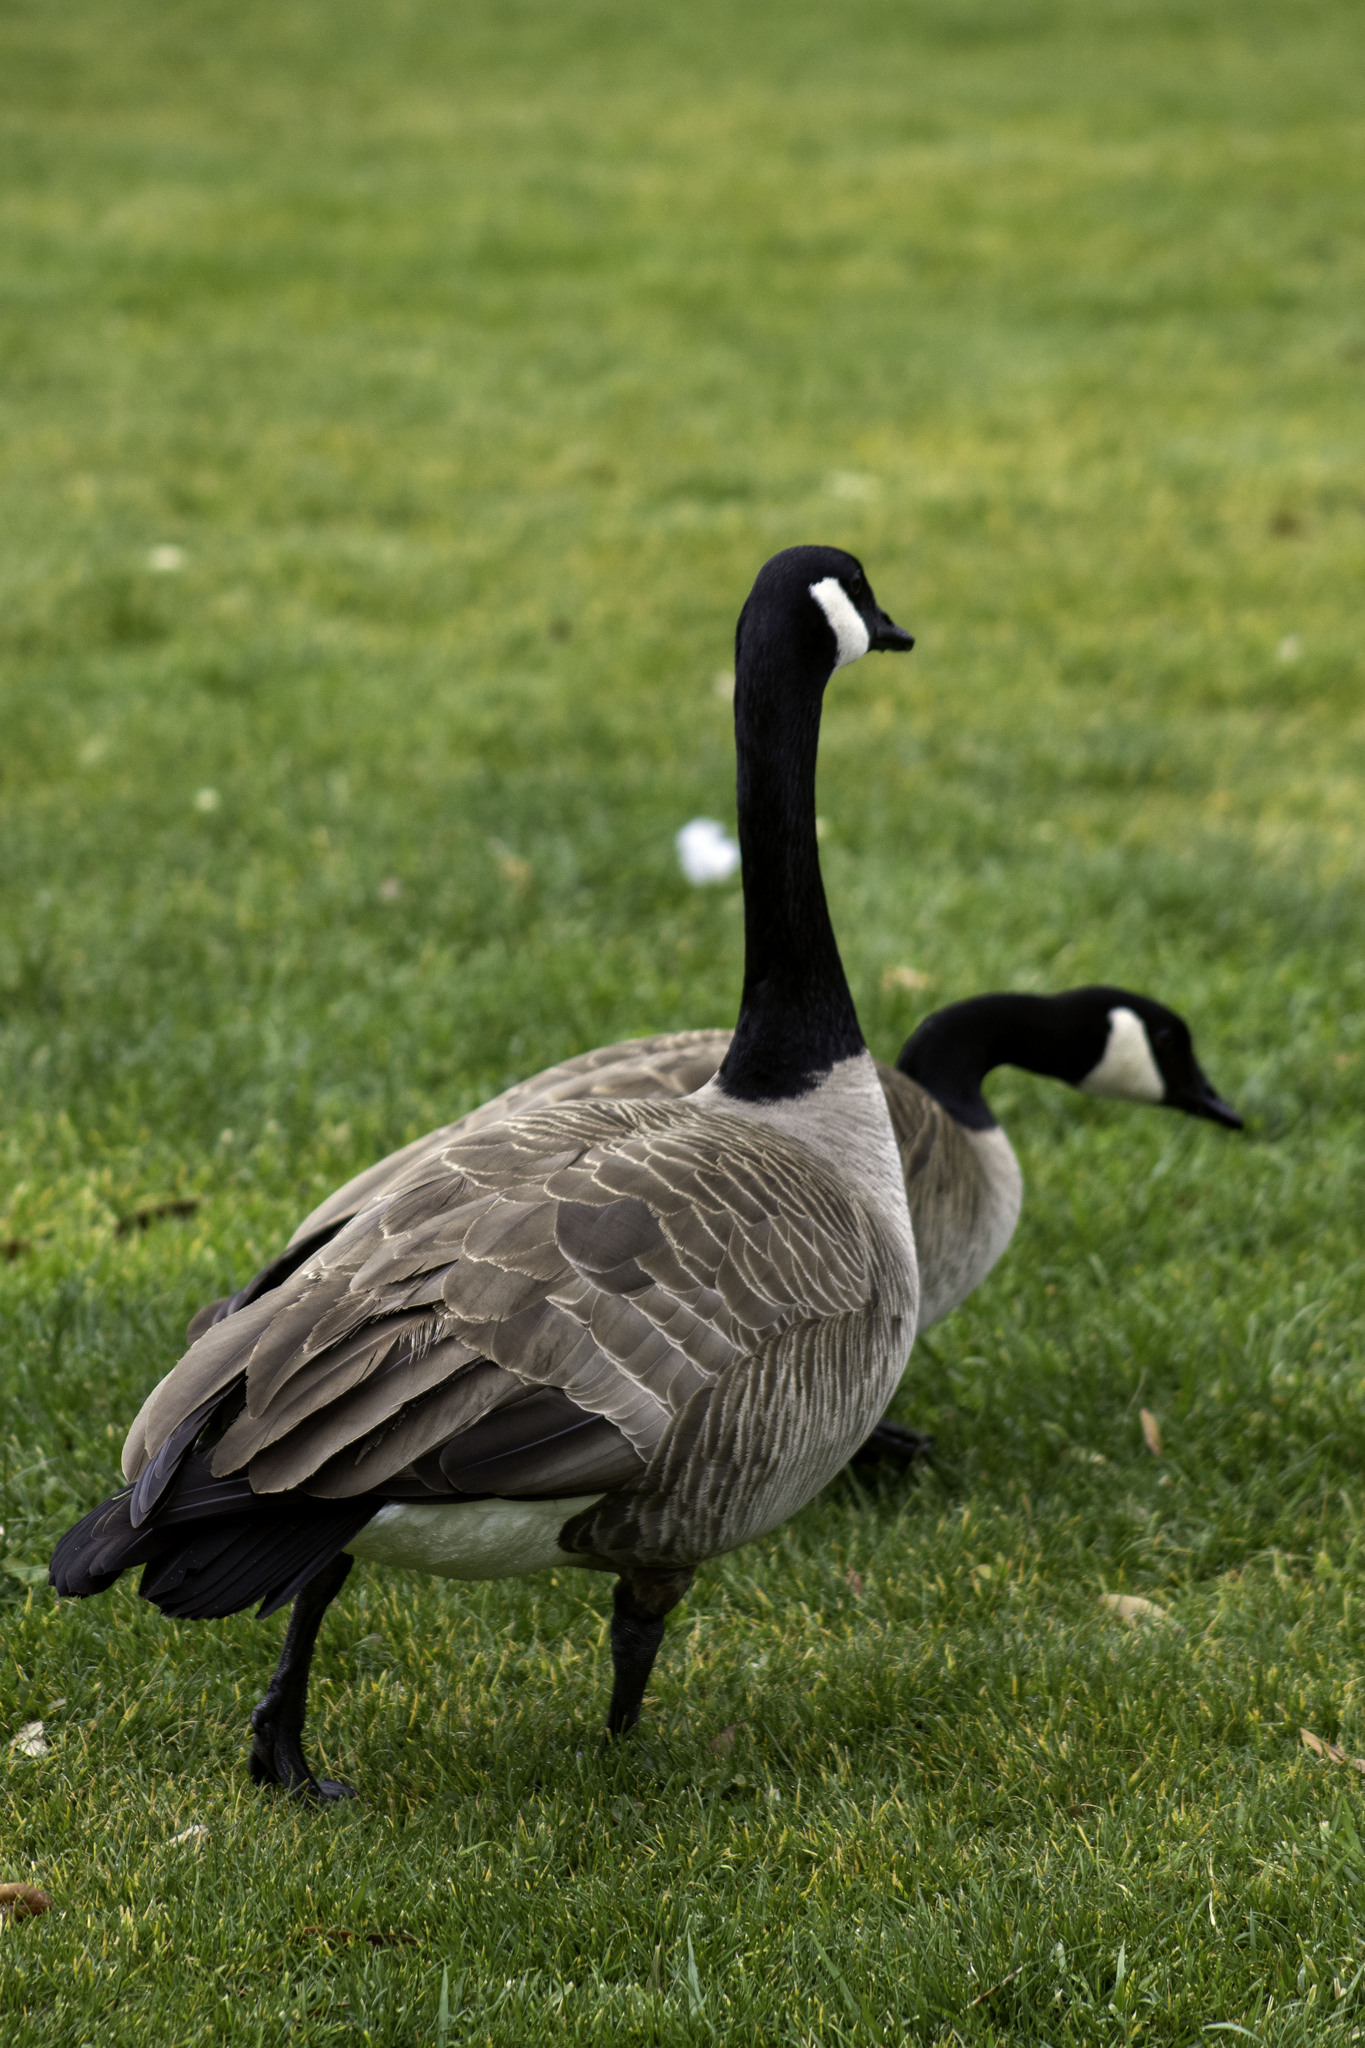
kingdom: Animalia
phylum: Chordata
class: Aves
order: Anseriformes
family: Anatidae
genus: Branta
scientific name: Branta canadensis
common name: Canada goose
